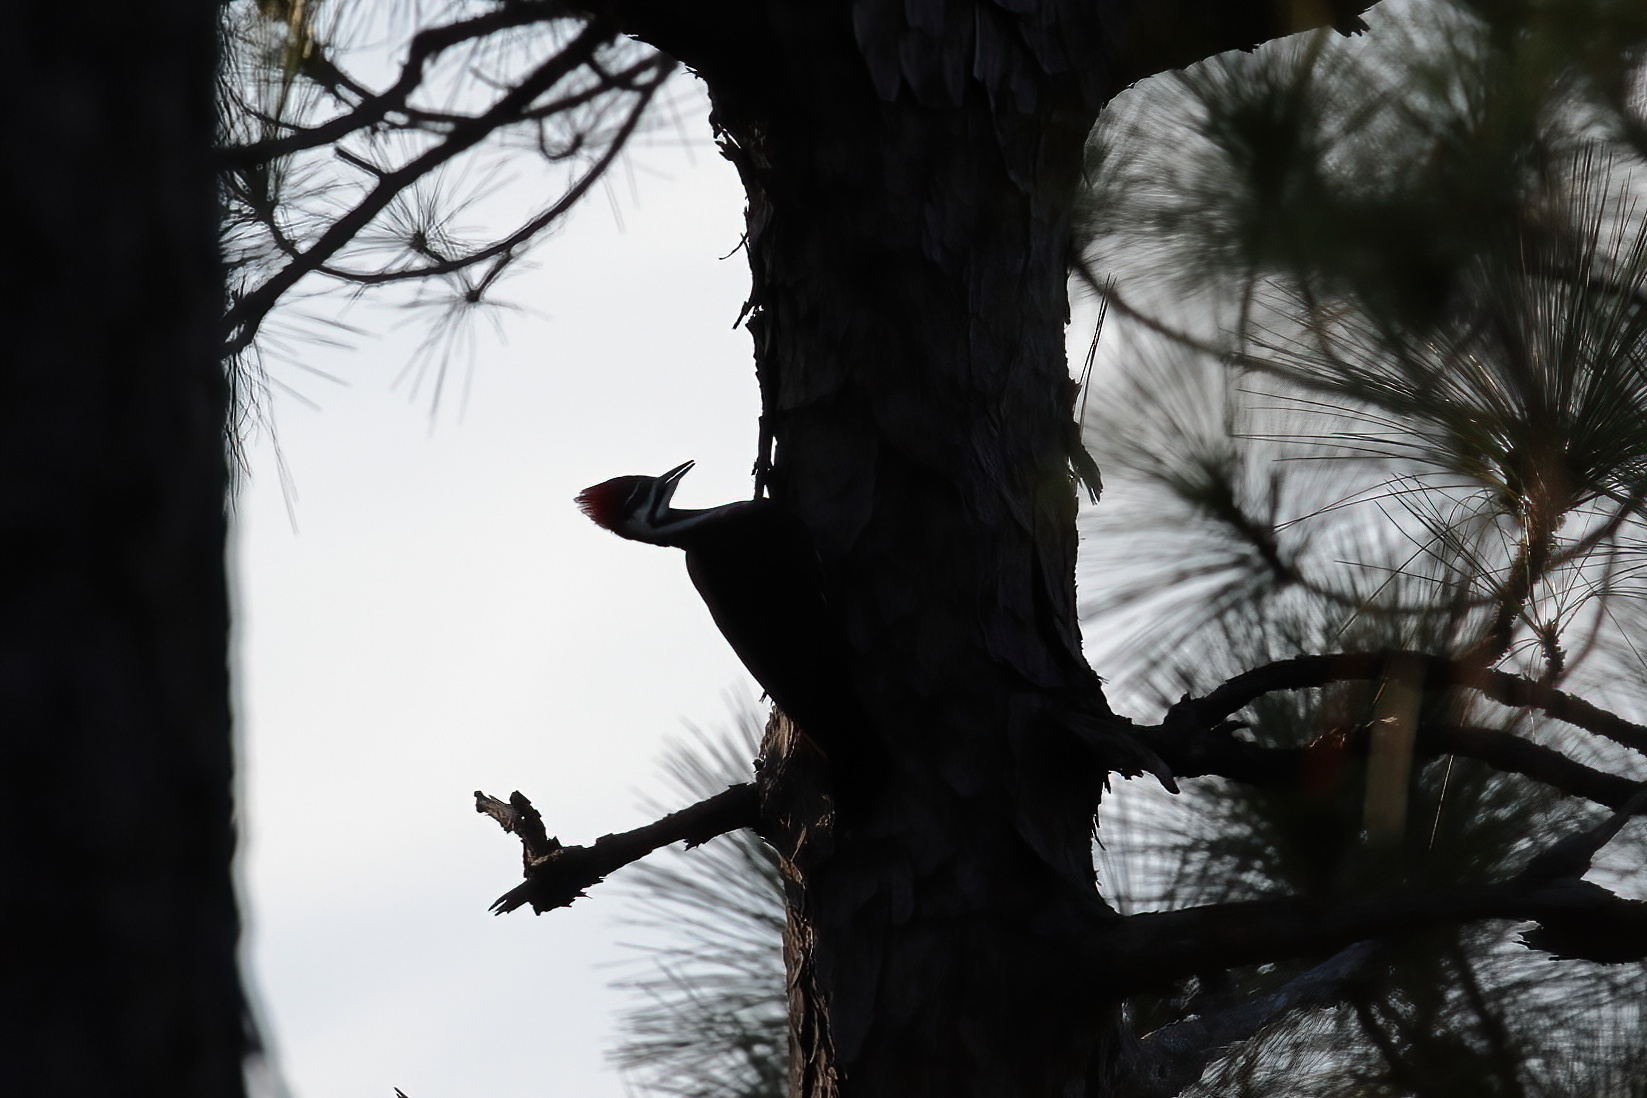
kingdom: Animalia
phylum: Chordata
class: Aves
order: Piciformes
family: Picidae
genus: Dryocopus
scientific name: Dryocopus pileatus
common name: Pileated woodpecker
